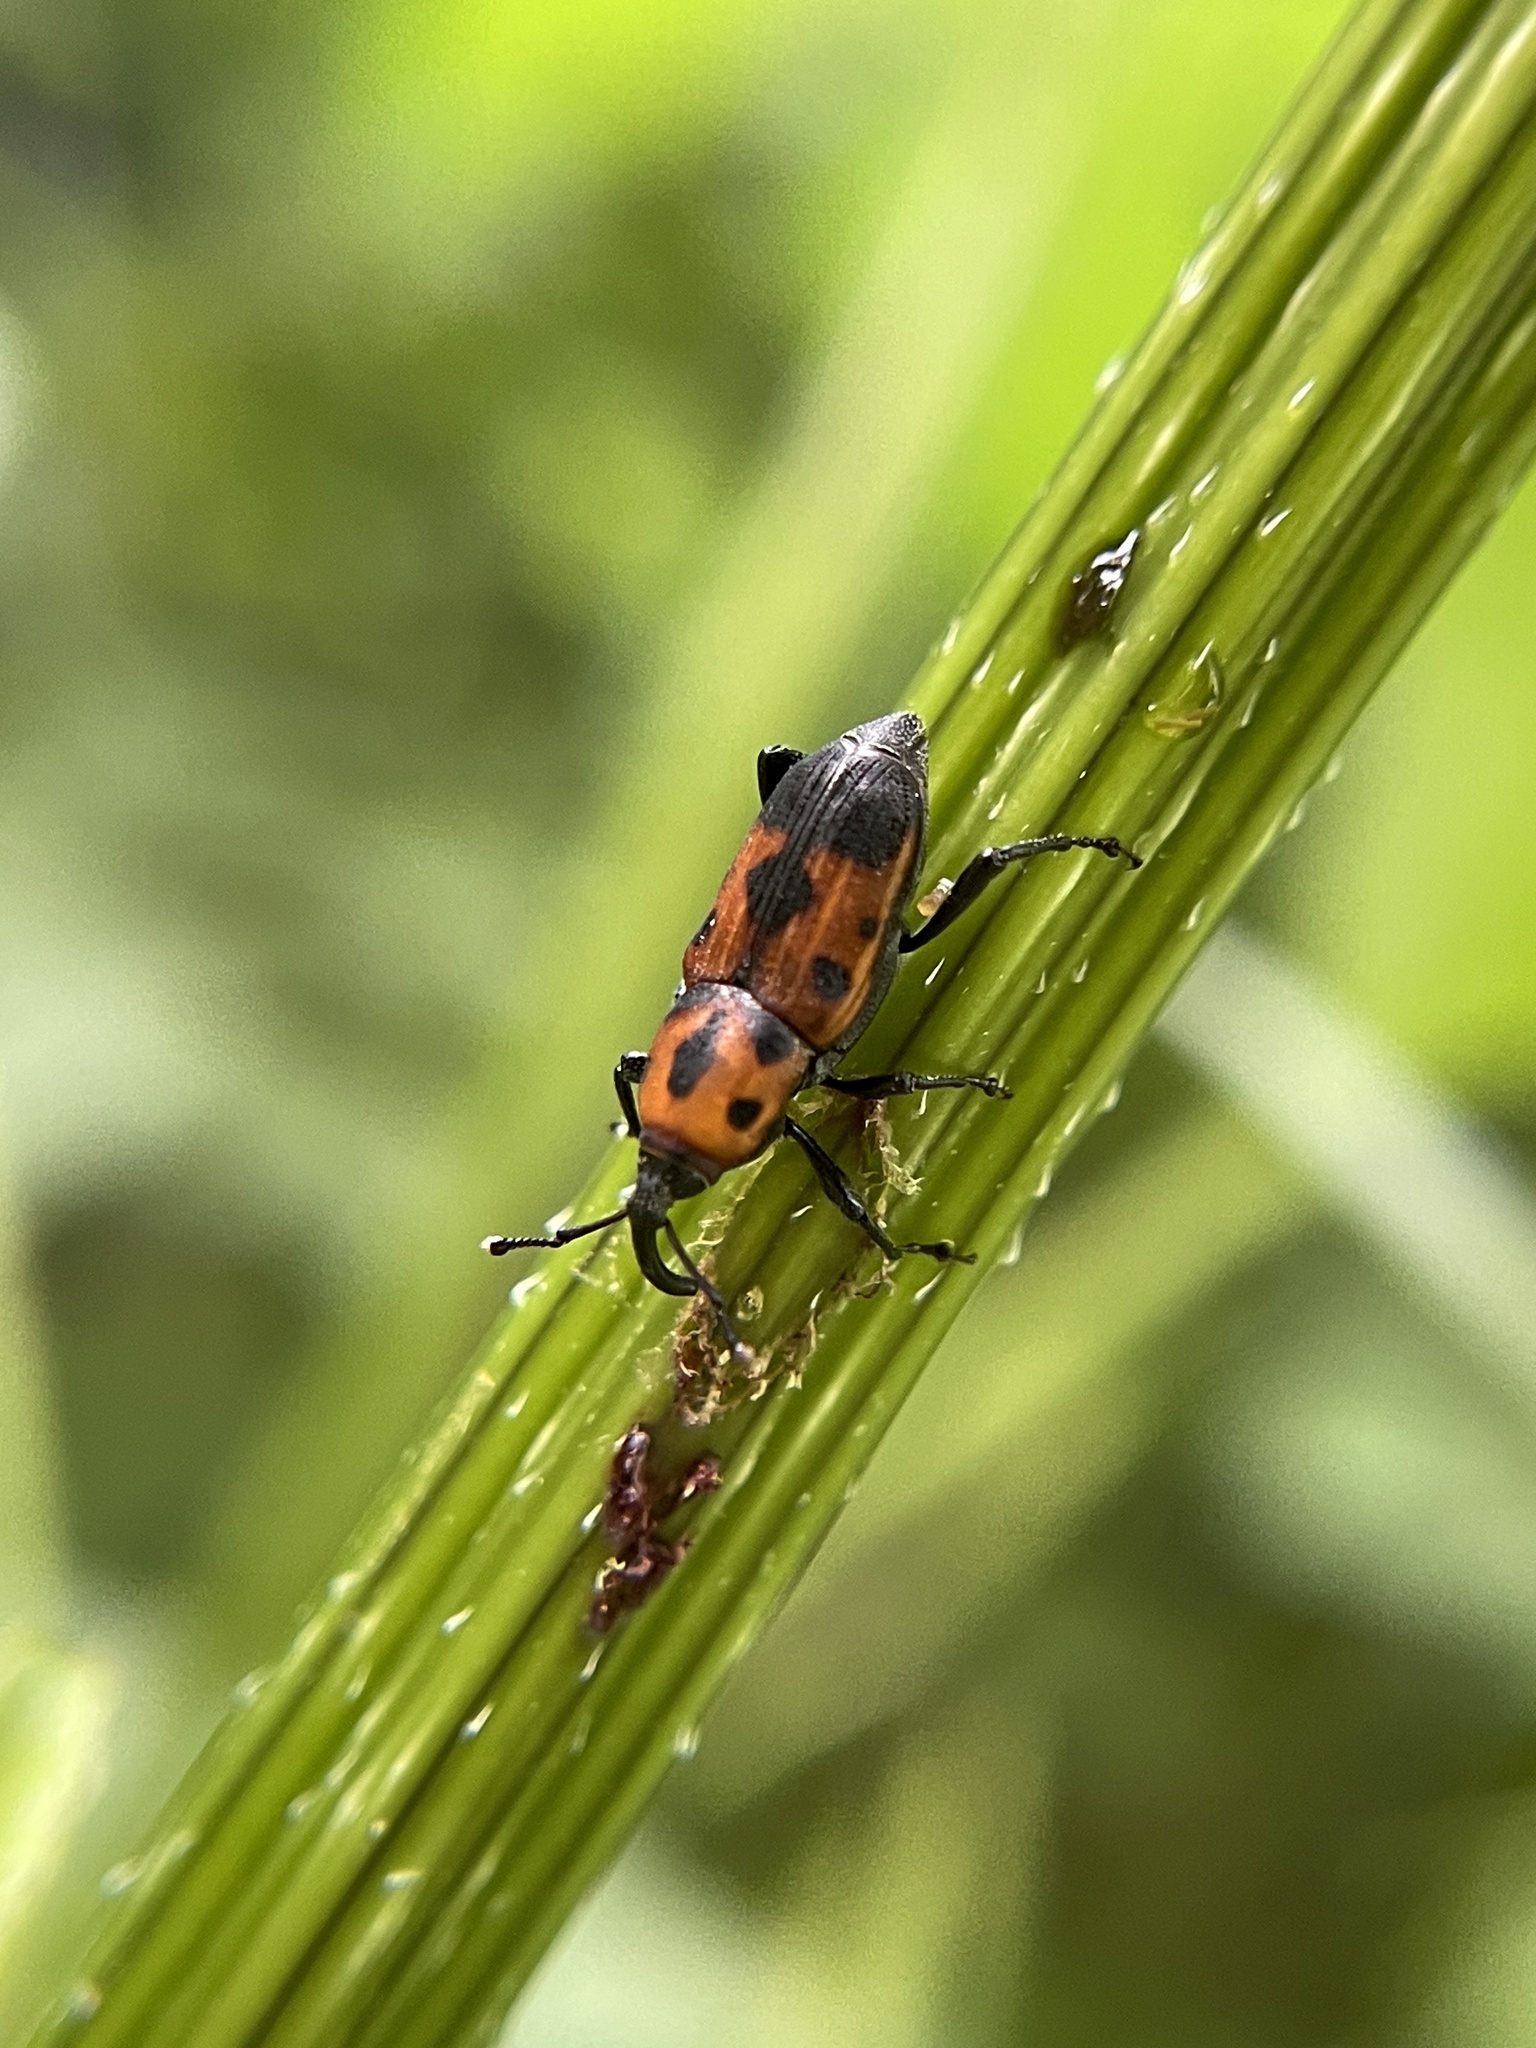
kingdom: Animalia
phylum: Arthropoda
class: Insecta
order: Coleoptera
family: Dryophthoridae
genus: Rhodobaenus
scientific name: Rhodobaenus quinquepunctatus
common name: Cocklebur weevil
